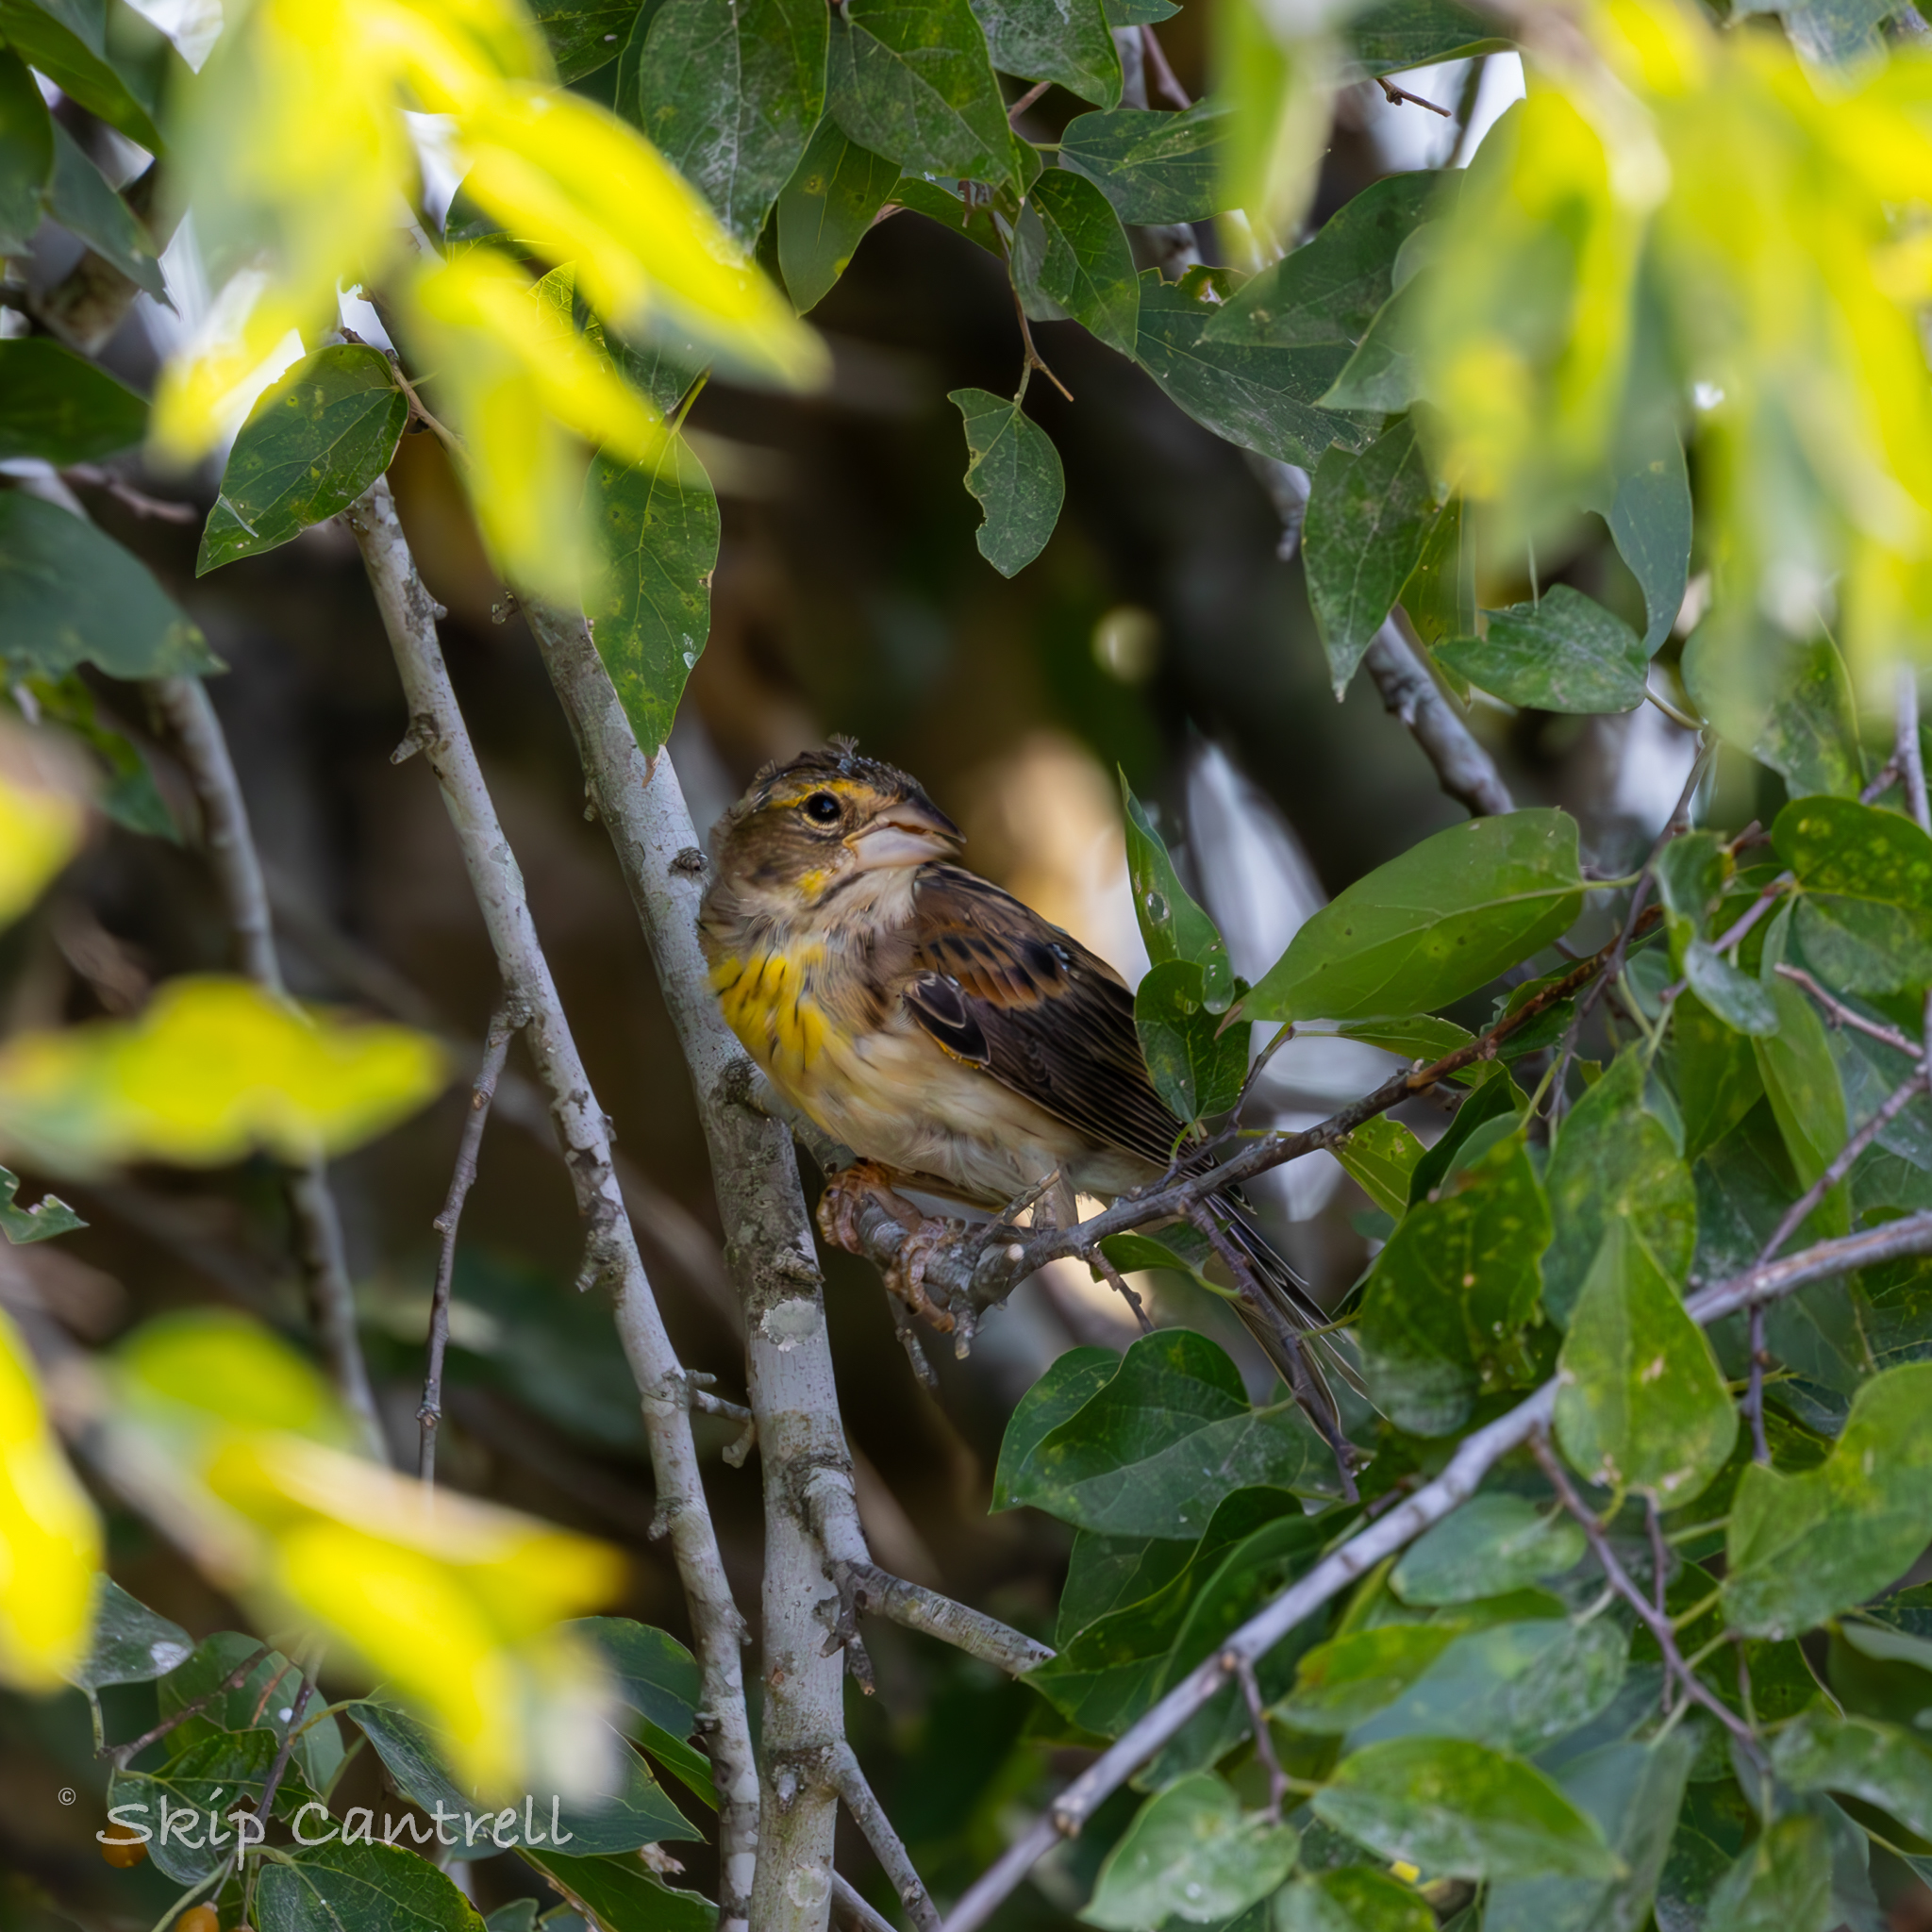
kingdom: Animalia
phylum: Chordata
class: Aves
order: Passeriformes
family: Cardinalidae
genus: Spiza
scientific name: Spiza americana
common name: Dickcissel
